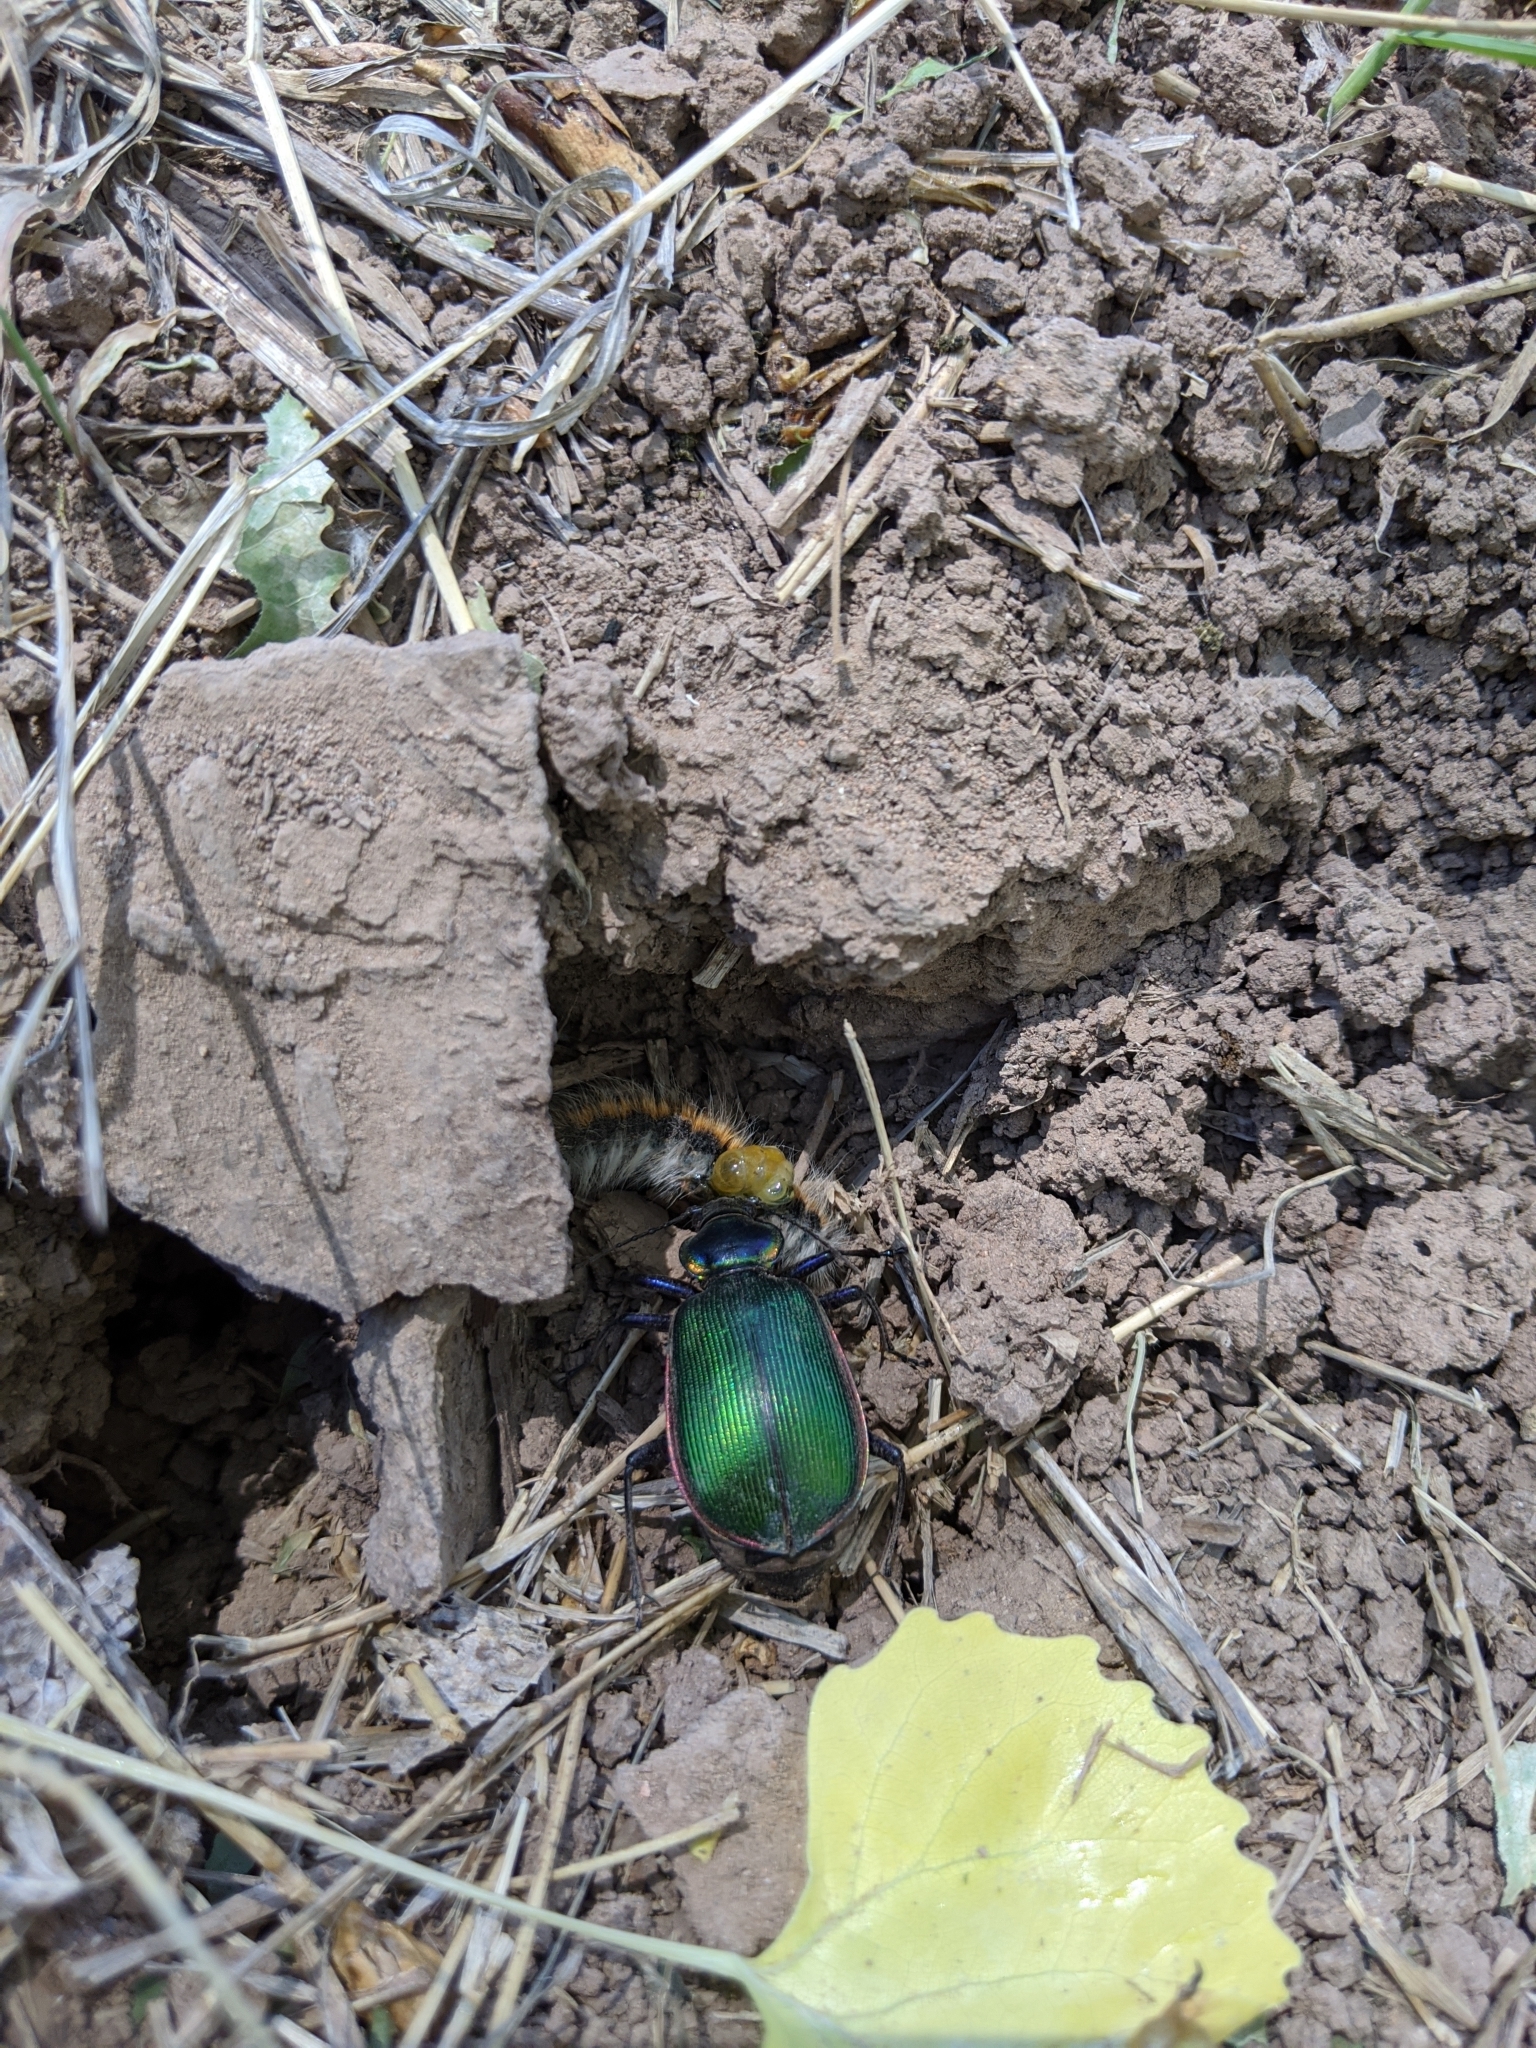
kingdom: Animalia
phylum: Arthropoda
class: Insecta
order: Coleoptera
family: Carabidae
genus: Calosoma
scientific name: Calosoma scrutator
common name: Fiery searcher beetle
